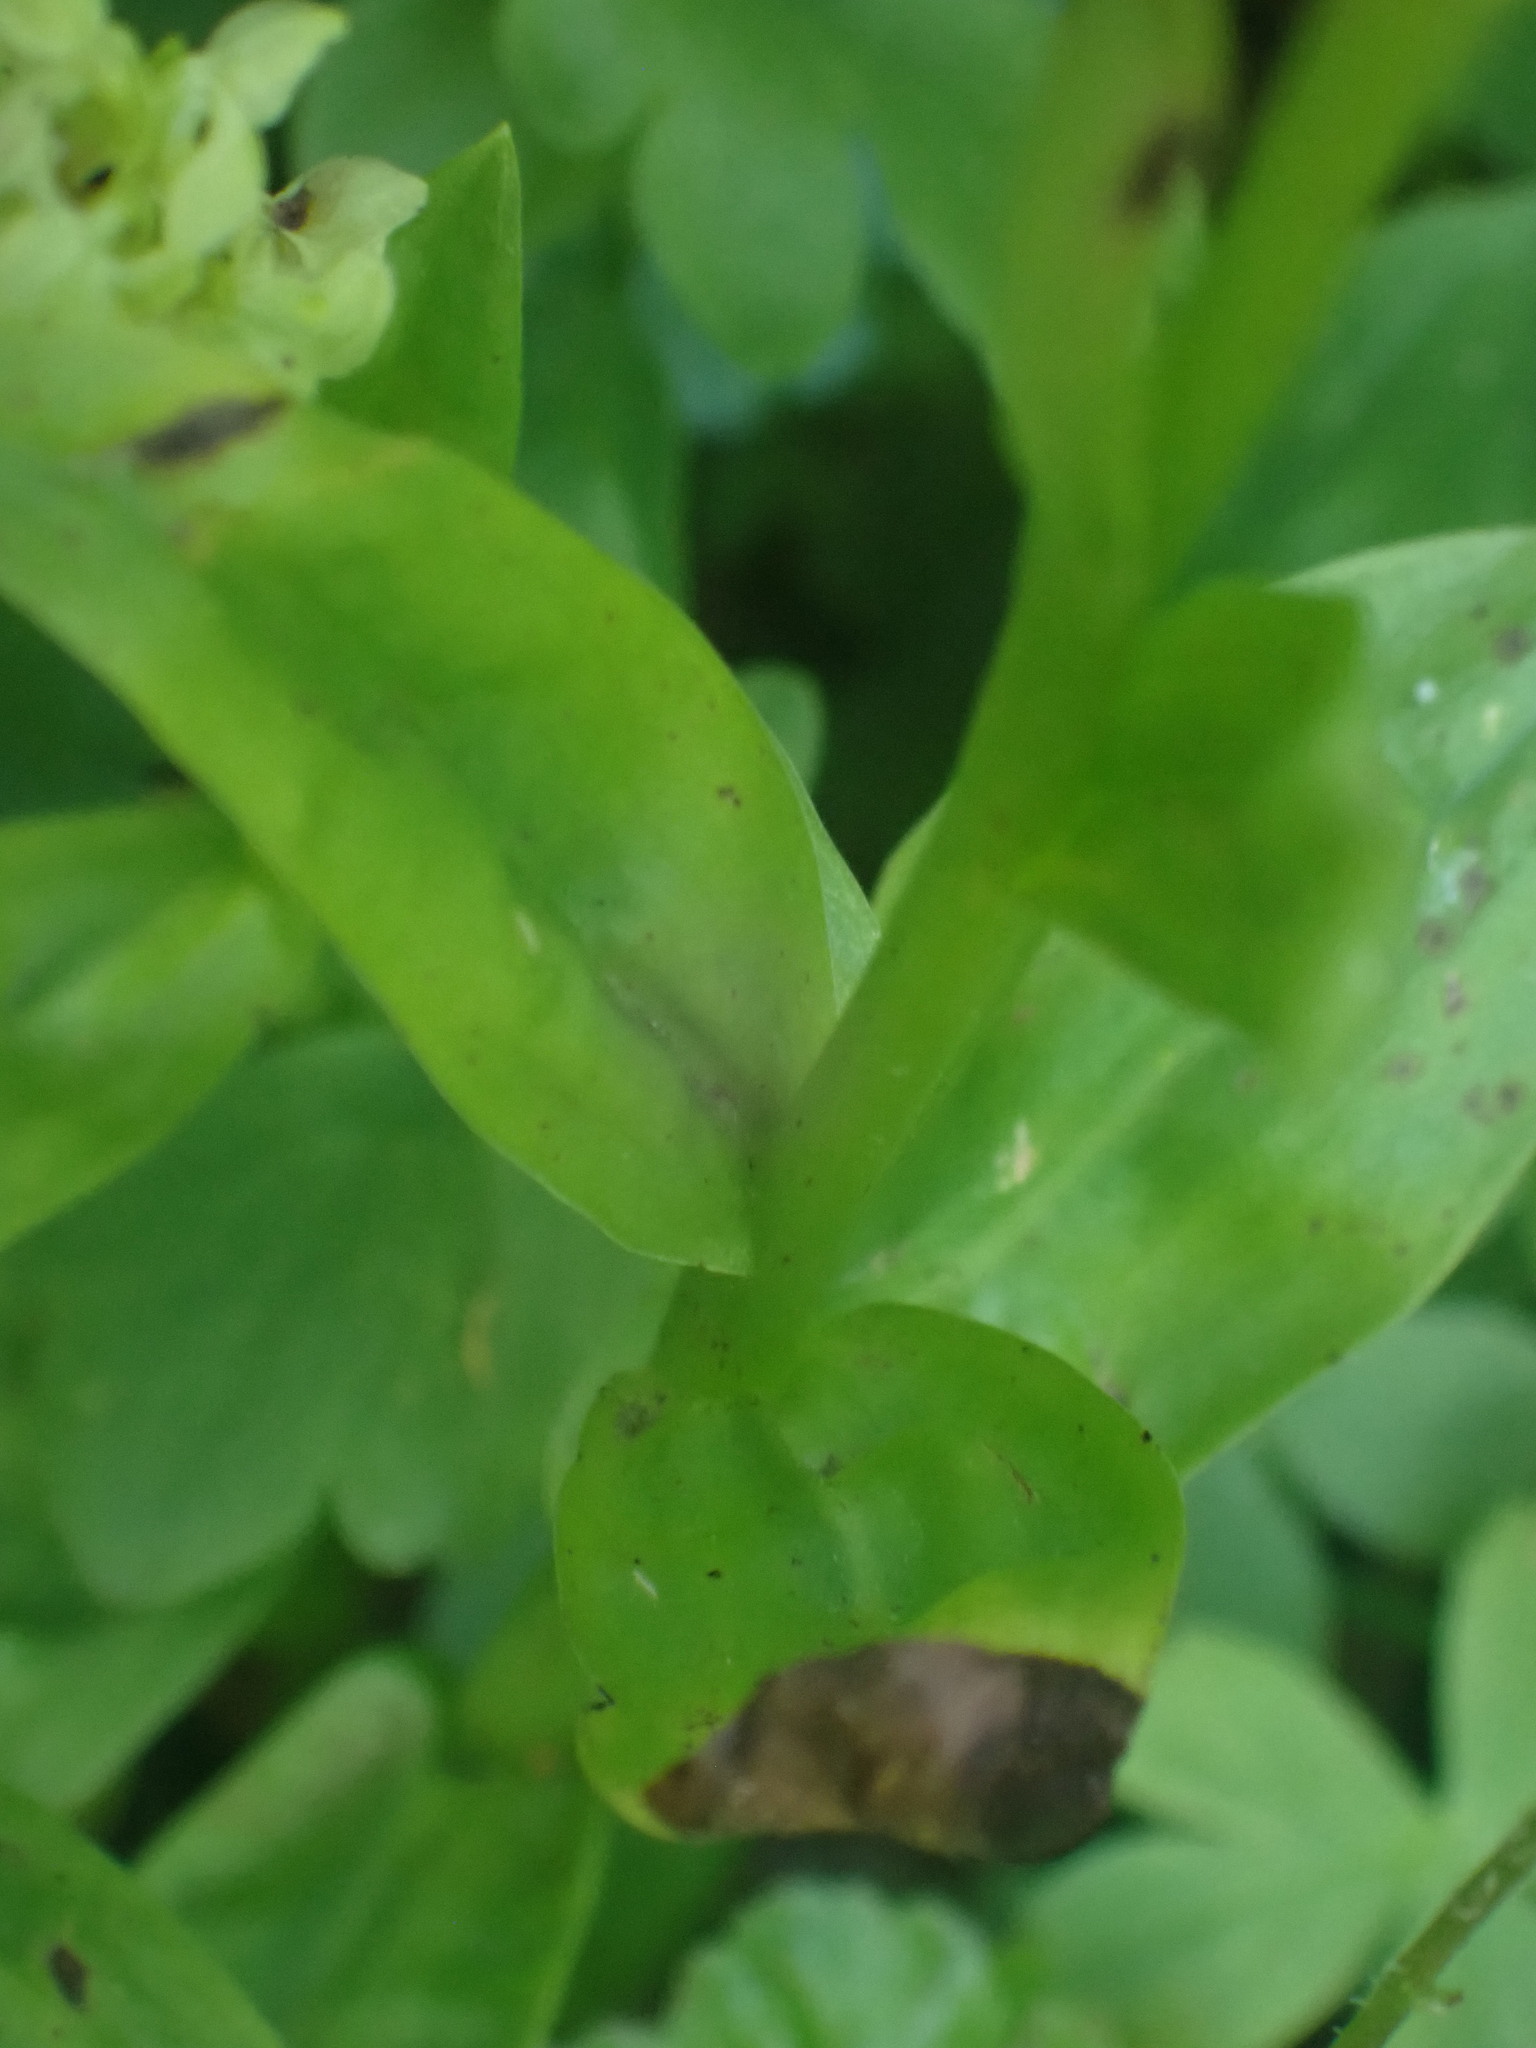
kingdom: Plantae
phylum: Tracheophyta
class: Liliopsida
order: Asparagales
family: Orchidaceae
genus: Platanthera
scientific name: Platanthera stricta
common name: Slender bog orchid
